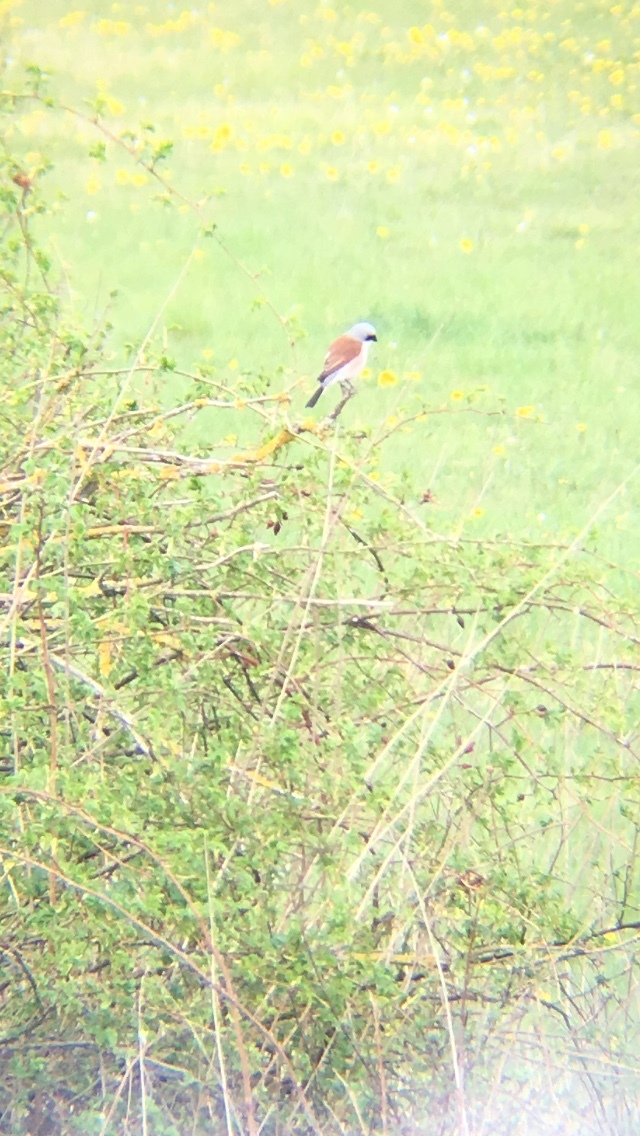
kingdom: Animalia
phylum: Chordata
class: Aves
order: Passeriformes
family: Laniidae
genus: Lanius
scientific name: Lanius collurio
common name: Red-backed shrike
